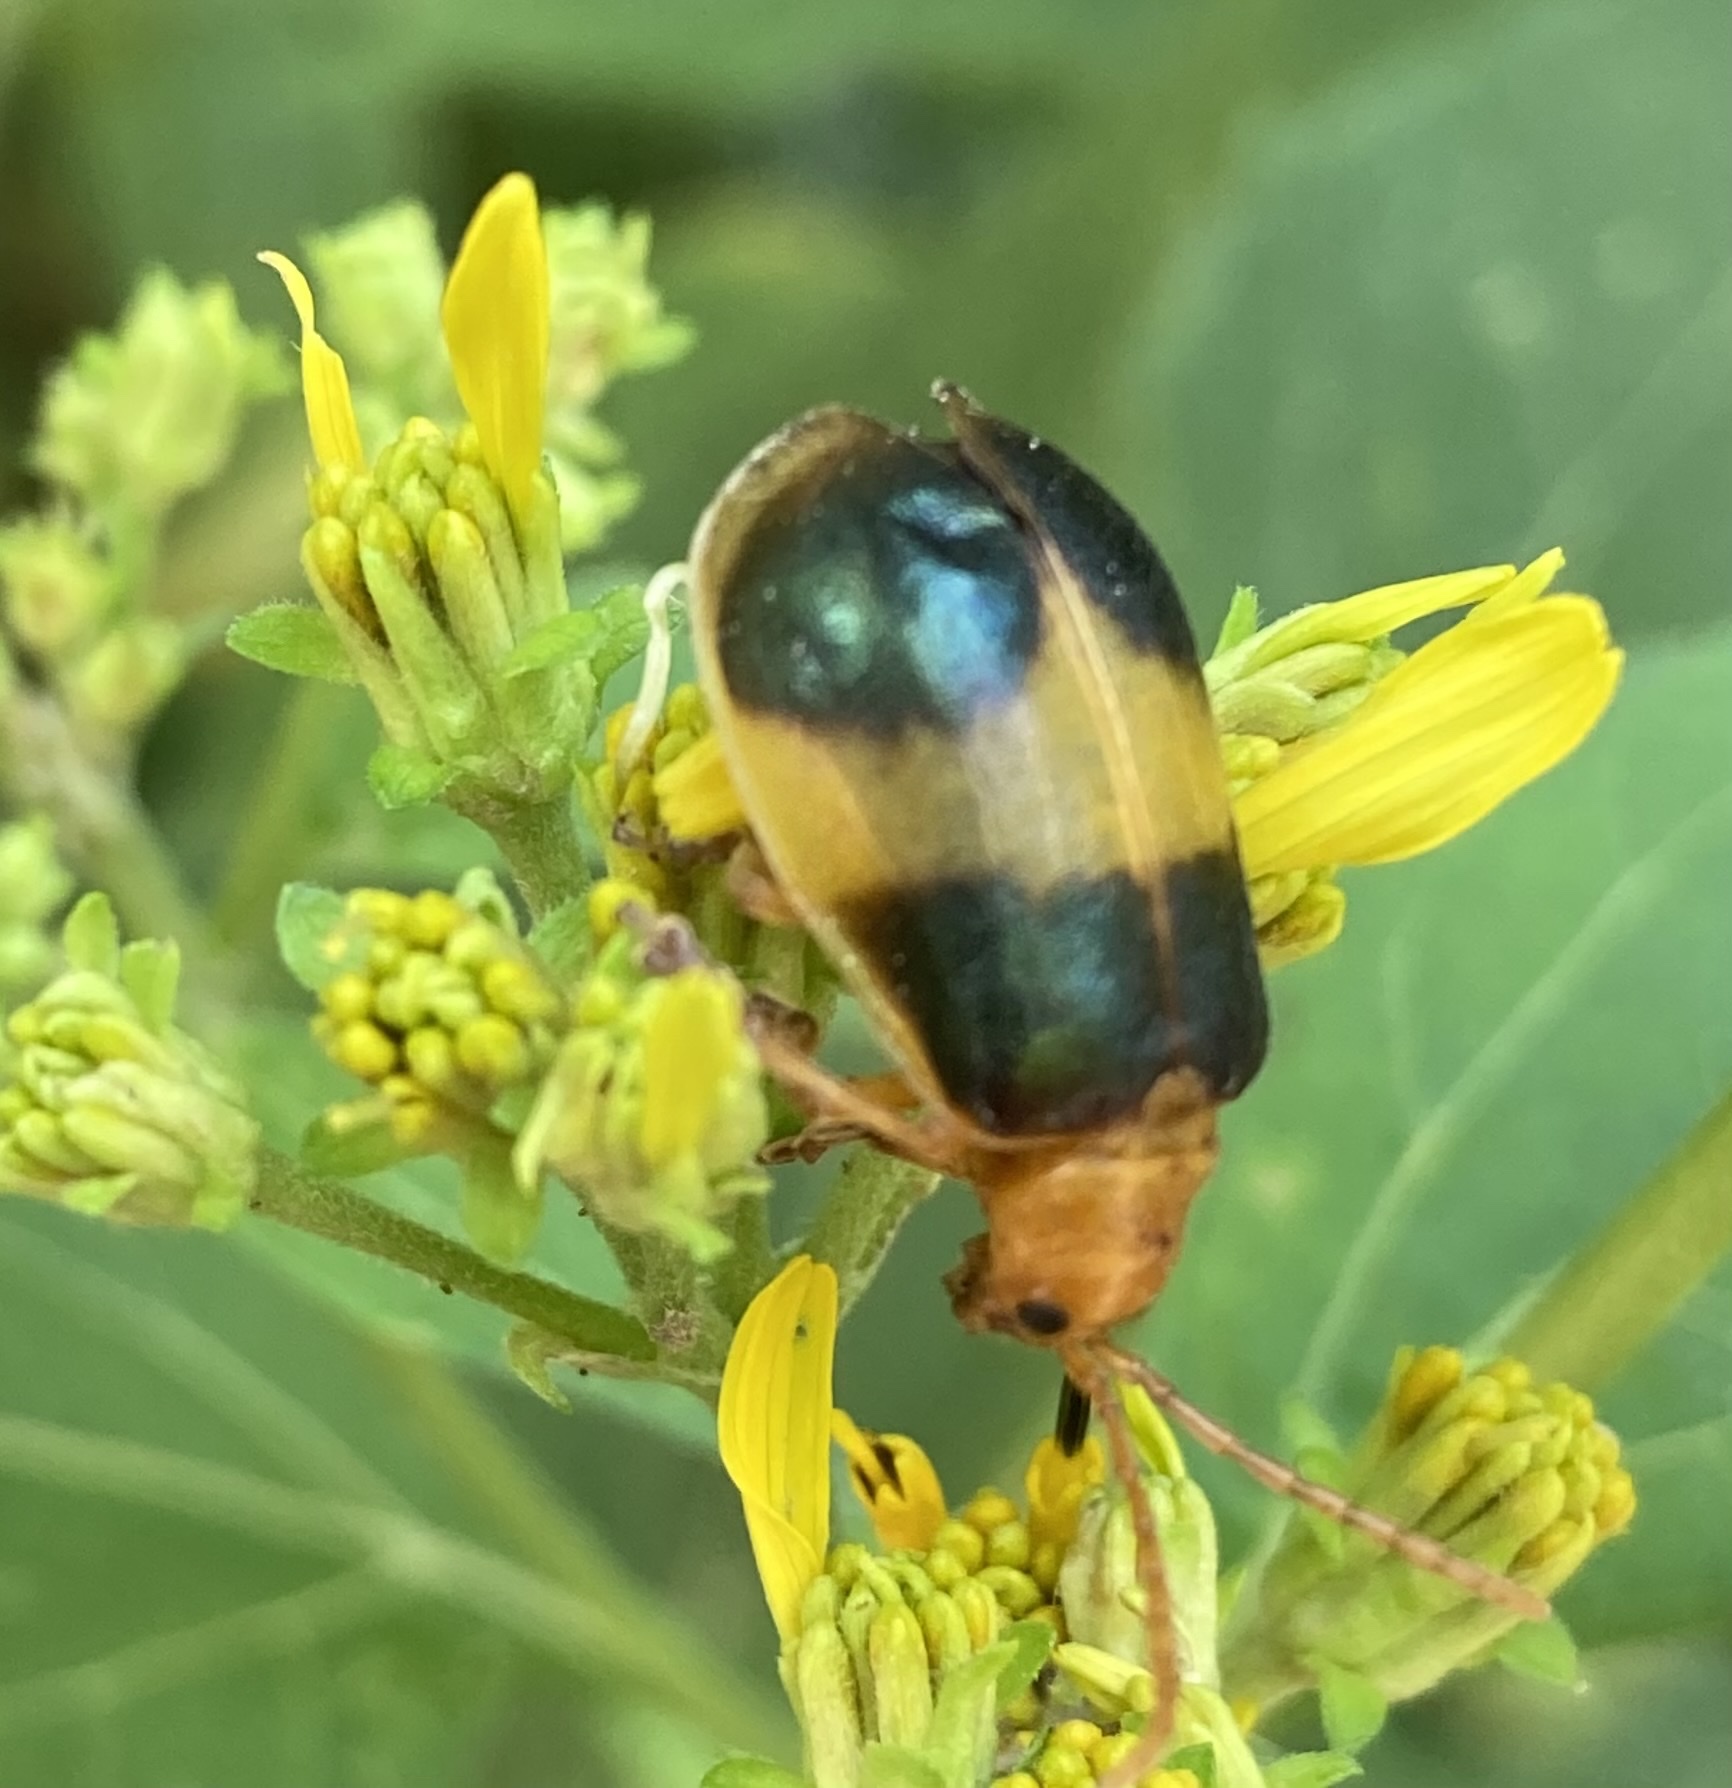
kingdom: Animalia
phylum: Arthropoda
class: Insecta
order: Coleoptera
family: Chrysomelidae
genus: Monocesta
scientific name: Monocesta coryli
